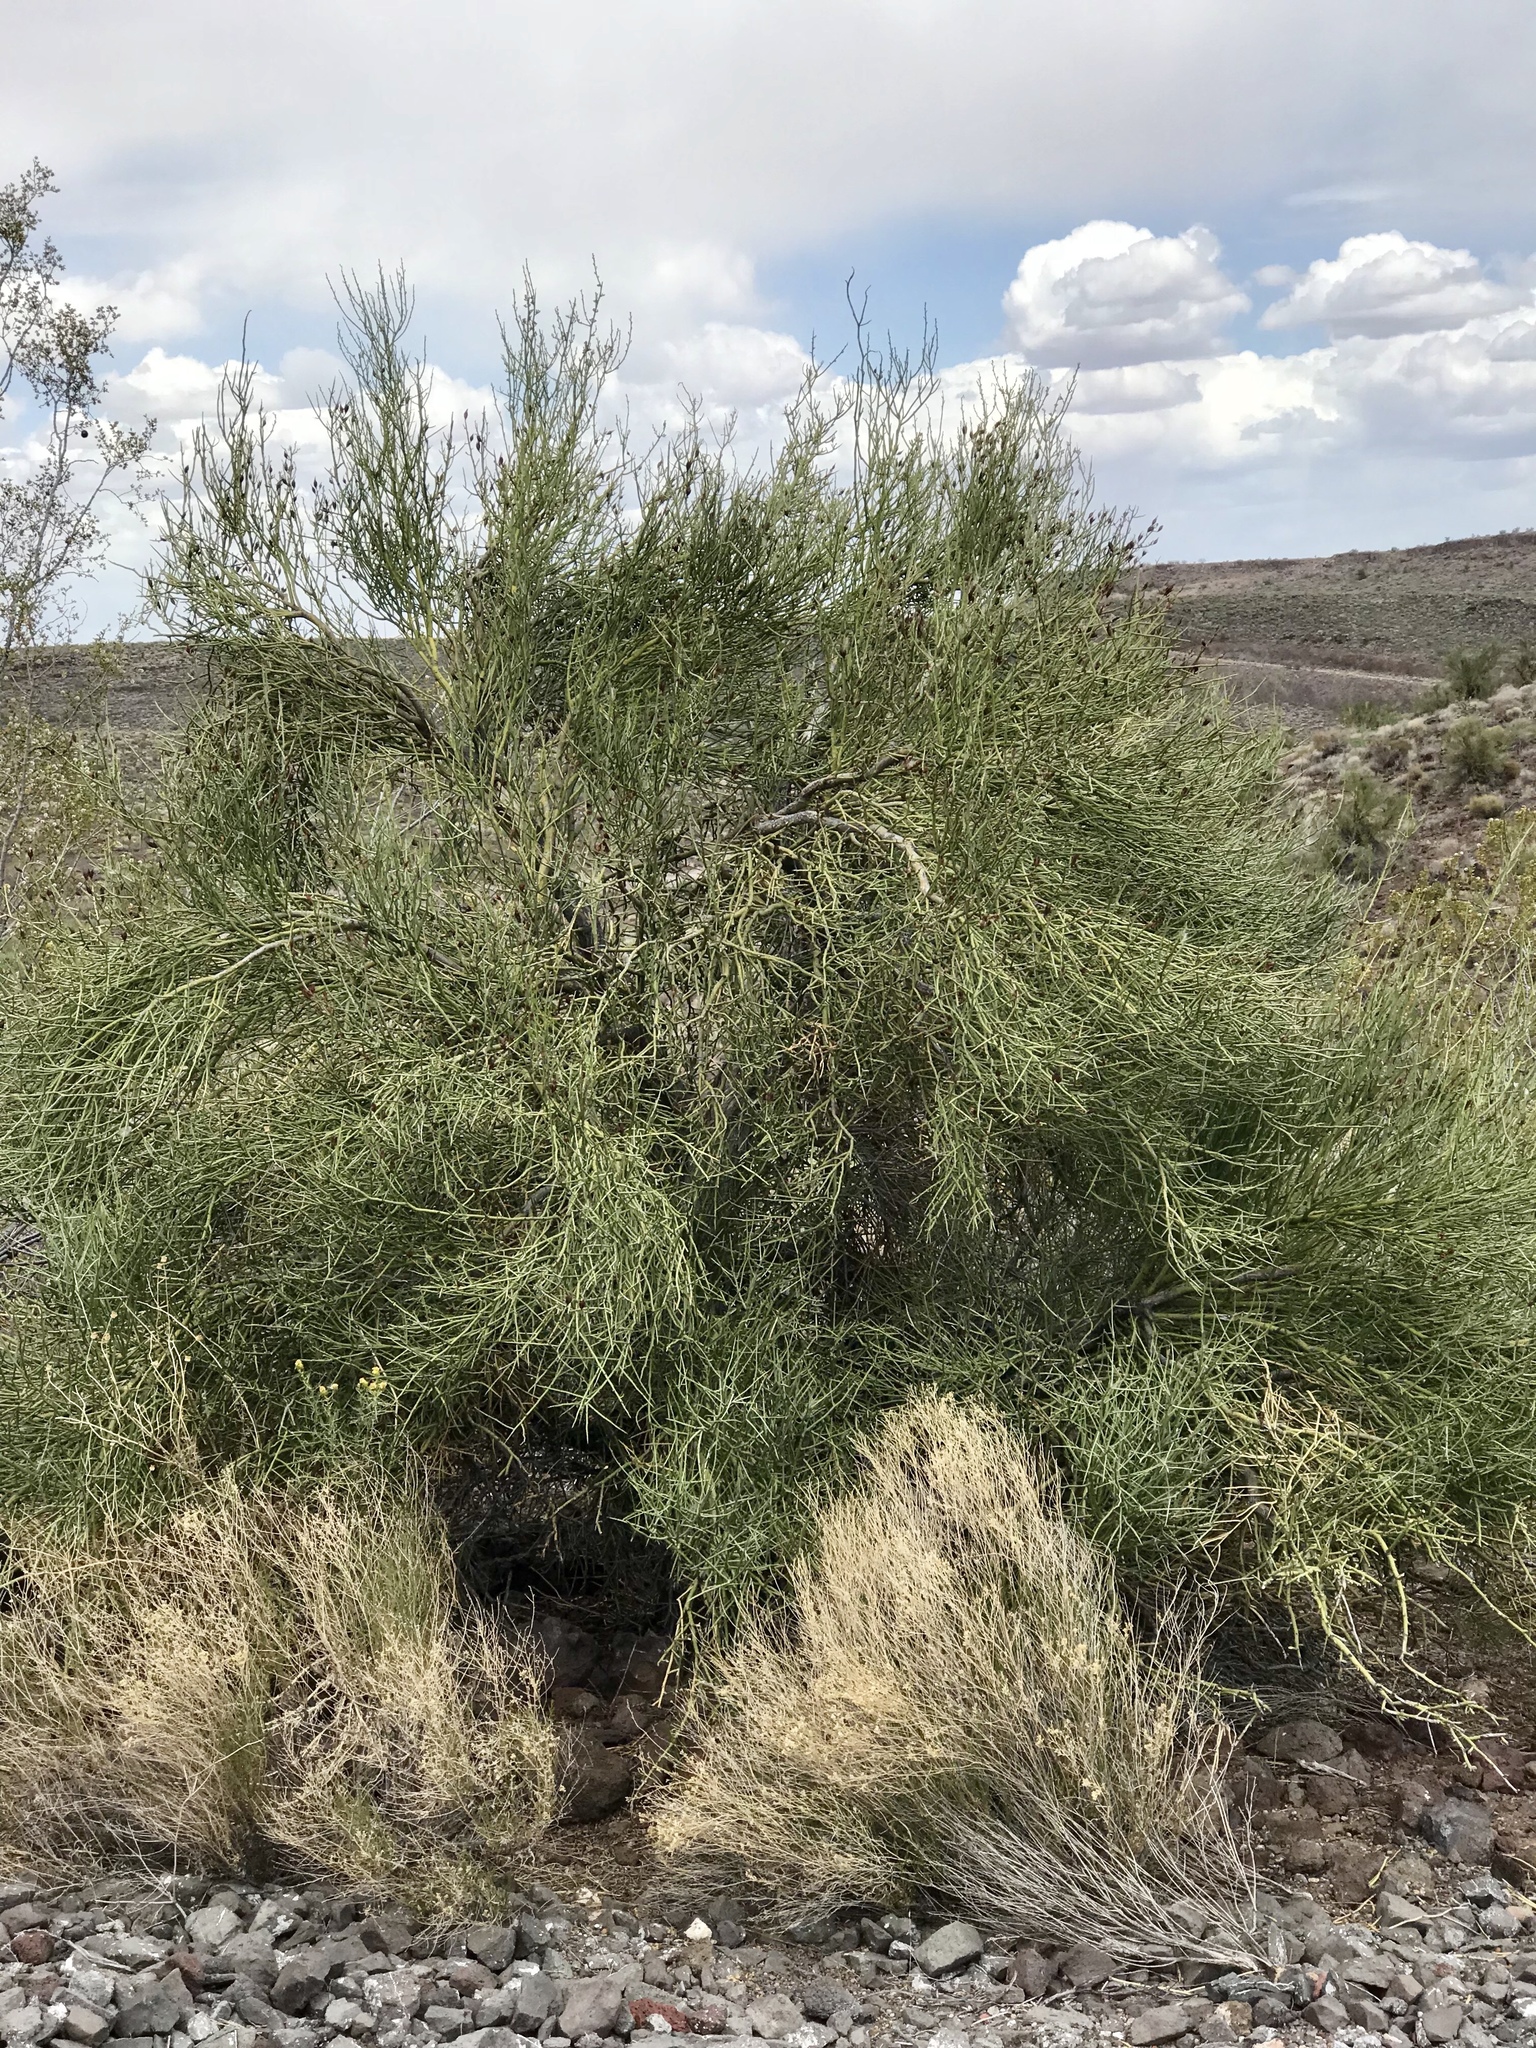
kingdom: Plantae
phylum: Tracheophyta
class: Magnoliopsida
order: Celastrales
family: Celastraceae
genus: Canotia
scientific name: Canotia holacantha
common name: Crucifixion thorns
